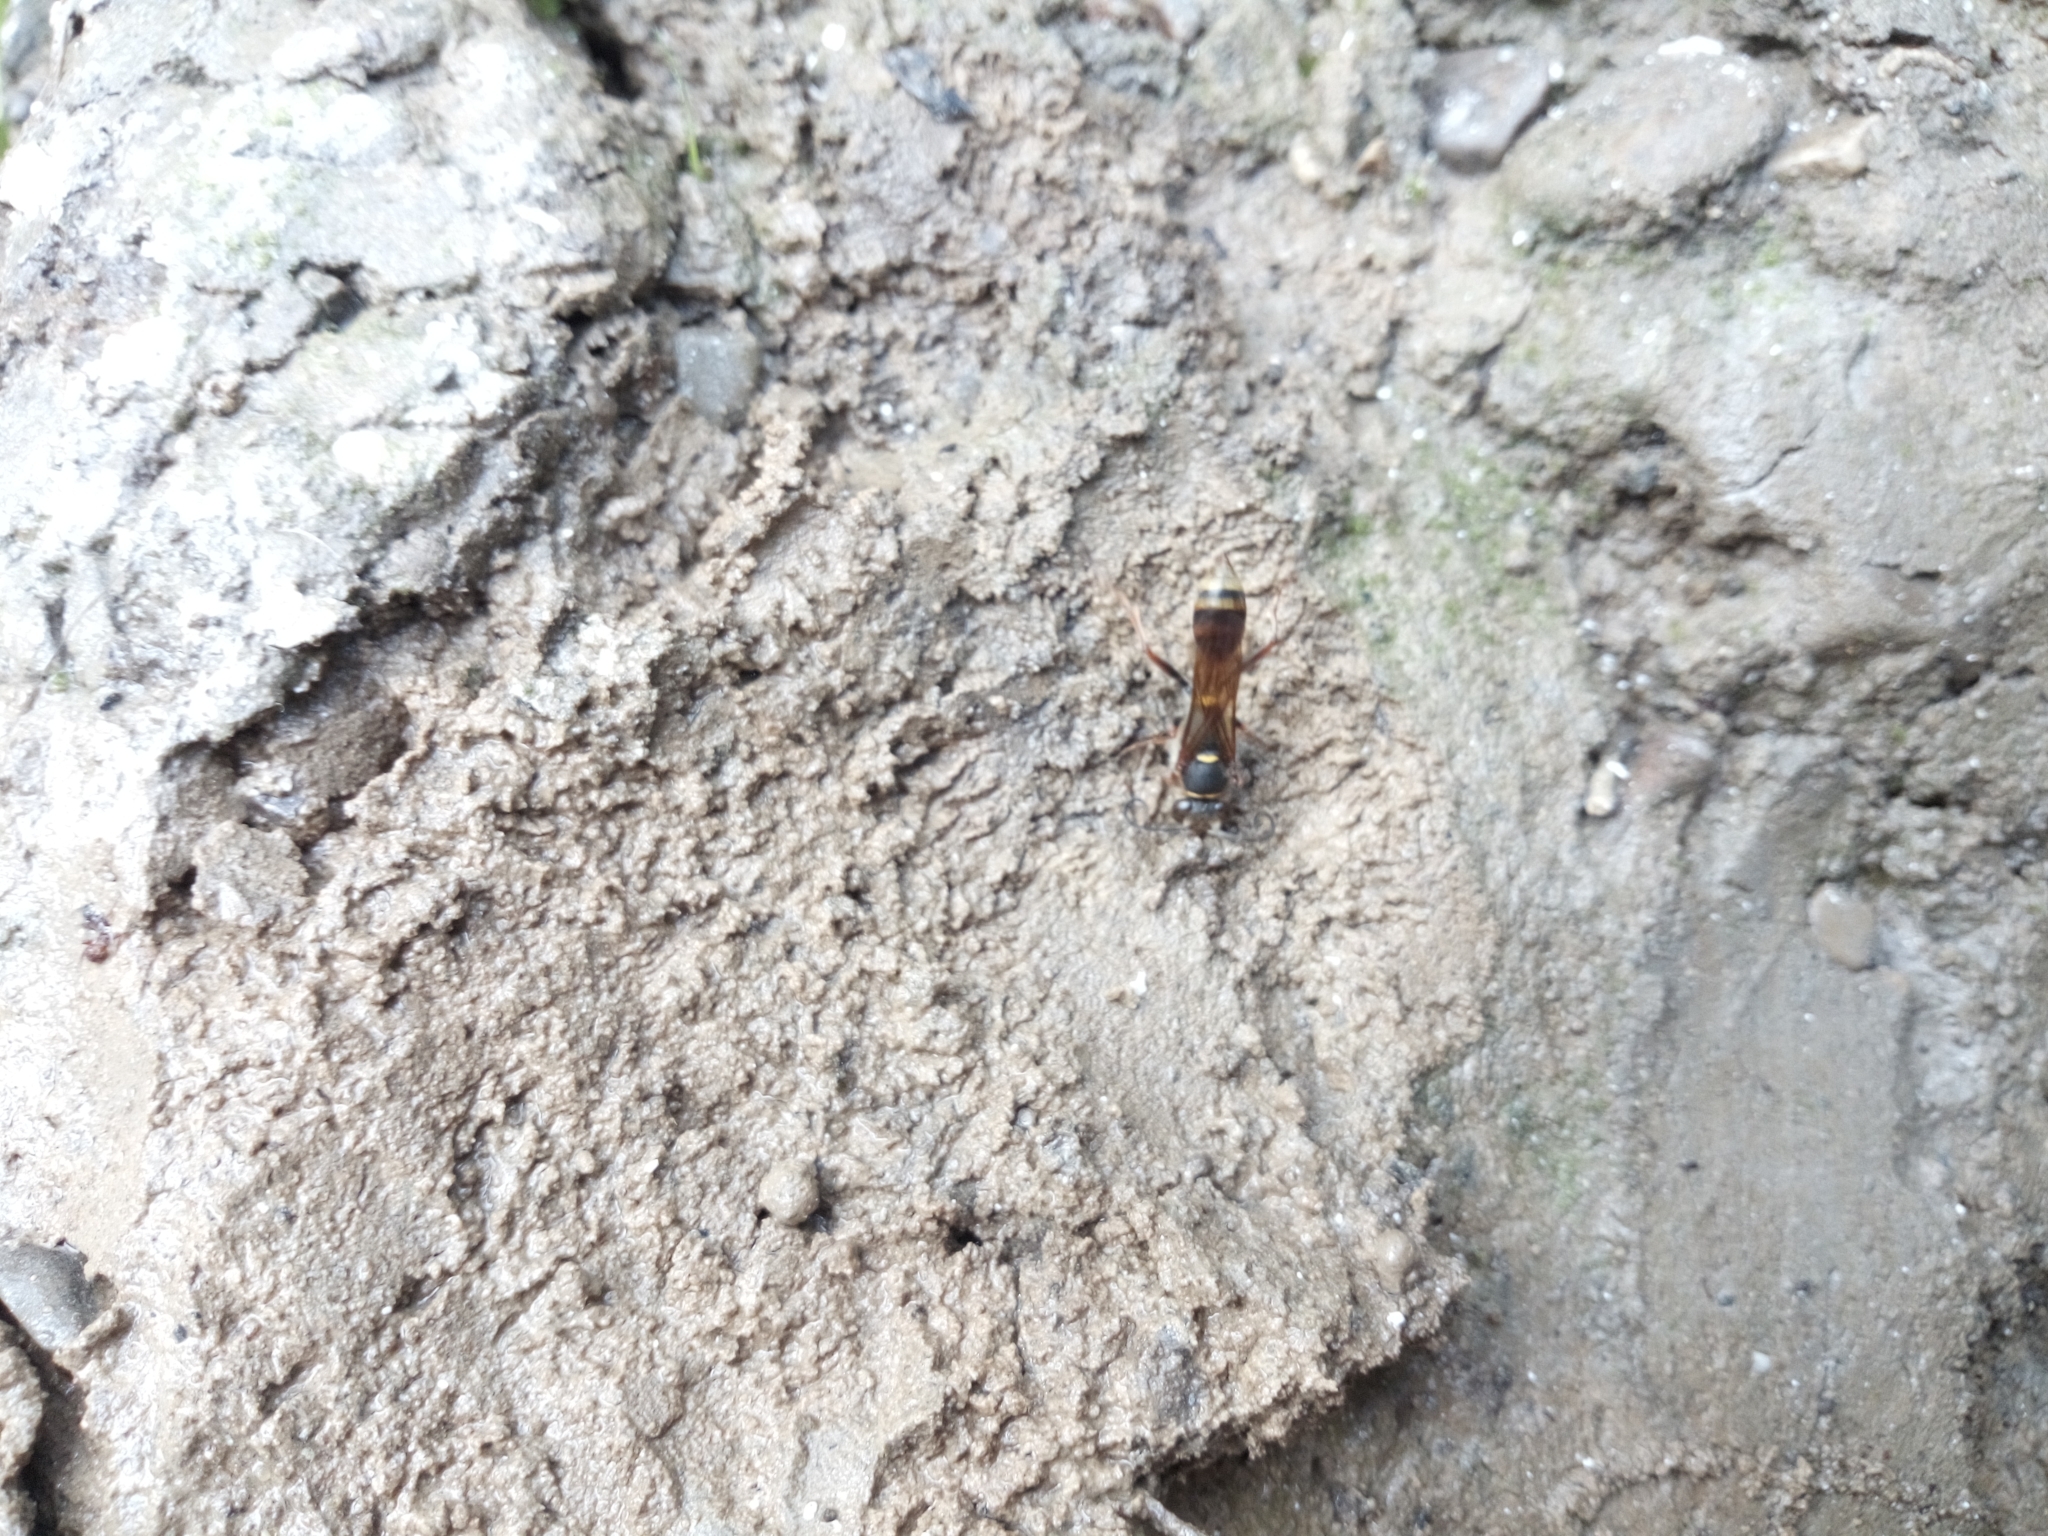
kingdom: Animalia
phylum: Arthropoda
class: Insecta
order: Hymenoptera
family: Sphecidae
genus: Sceliphron
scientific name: Sceliphron curvatum
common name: Pèlopèe
